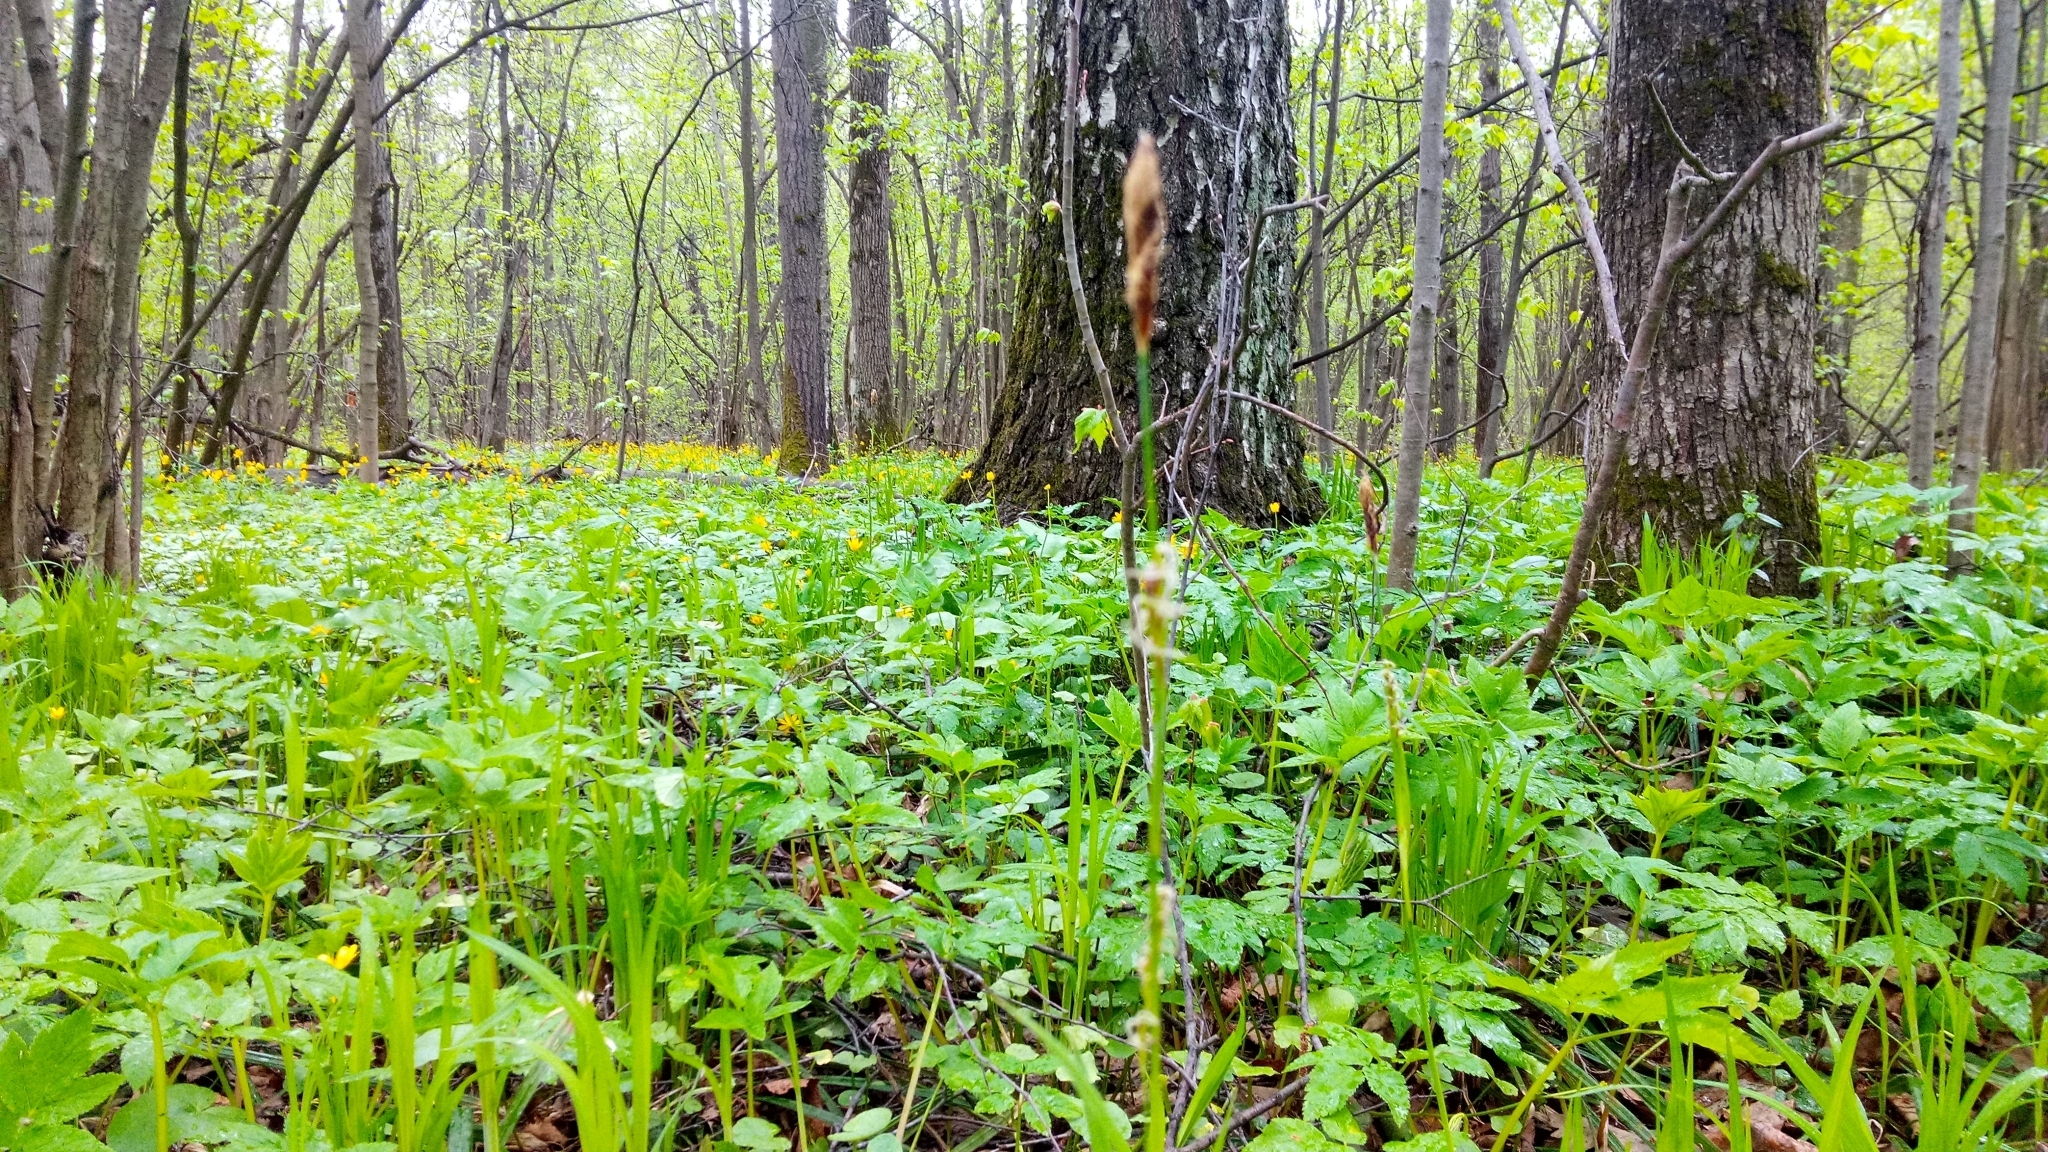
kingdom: Plantae
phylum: Tracheophyta
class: Liliopsida
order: Poales
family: Cyperaceae
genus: Carex
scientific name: Carex pilosa
